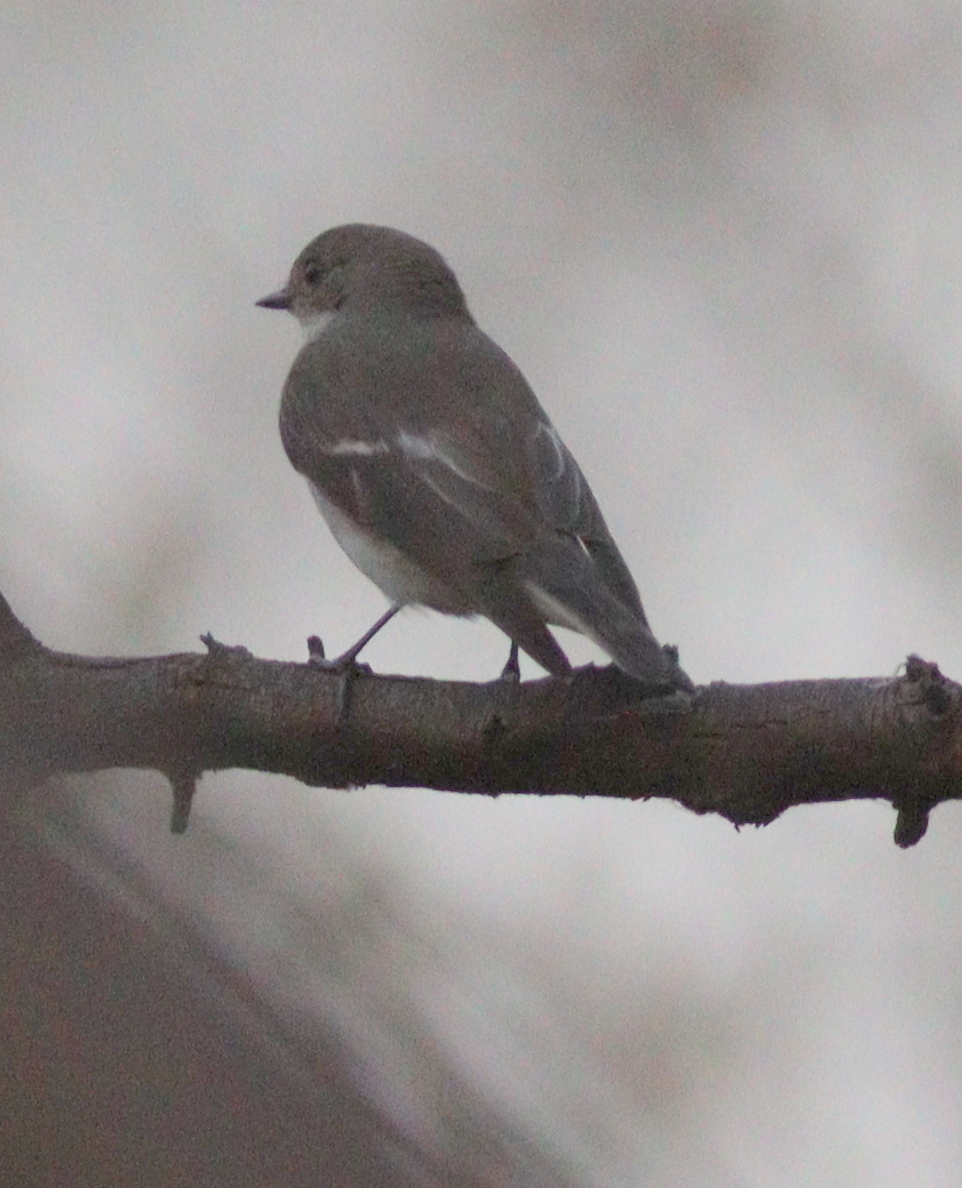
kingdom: Animalia
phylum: Chordata
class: Aves
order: Passeriformes
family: Muscicapidae
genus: Ficedula
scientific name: Ficedula hypoleuca
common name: European pied flycatcher
